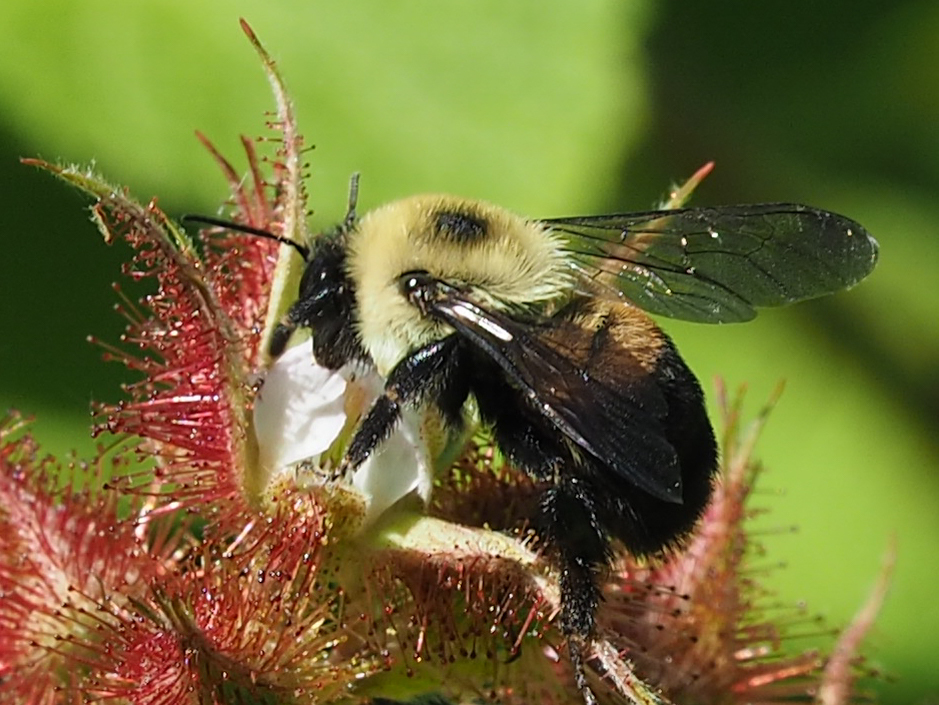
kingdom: Animalia
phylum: Arthropoda
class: Insecta
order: Hymenoptera
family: Apidae
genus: Bombus
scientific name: Bombus griseocollis
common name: Brown-belted bumble bee
